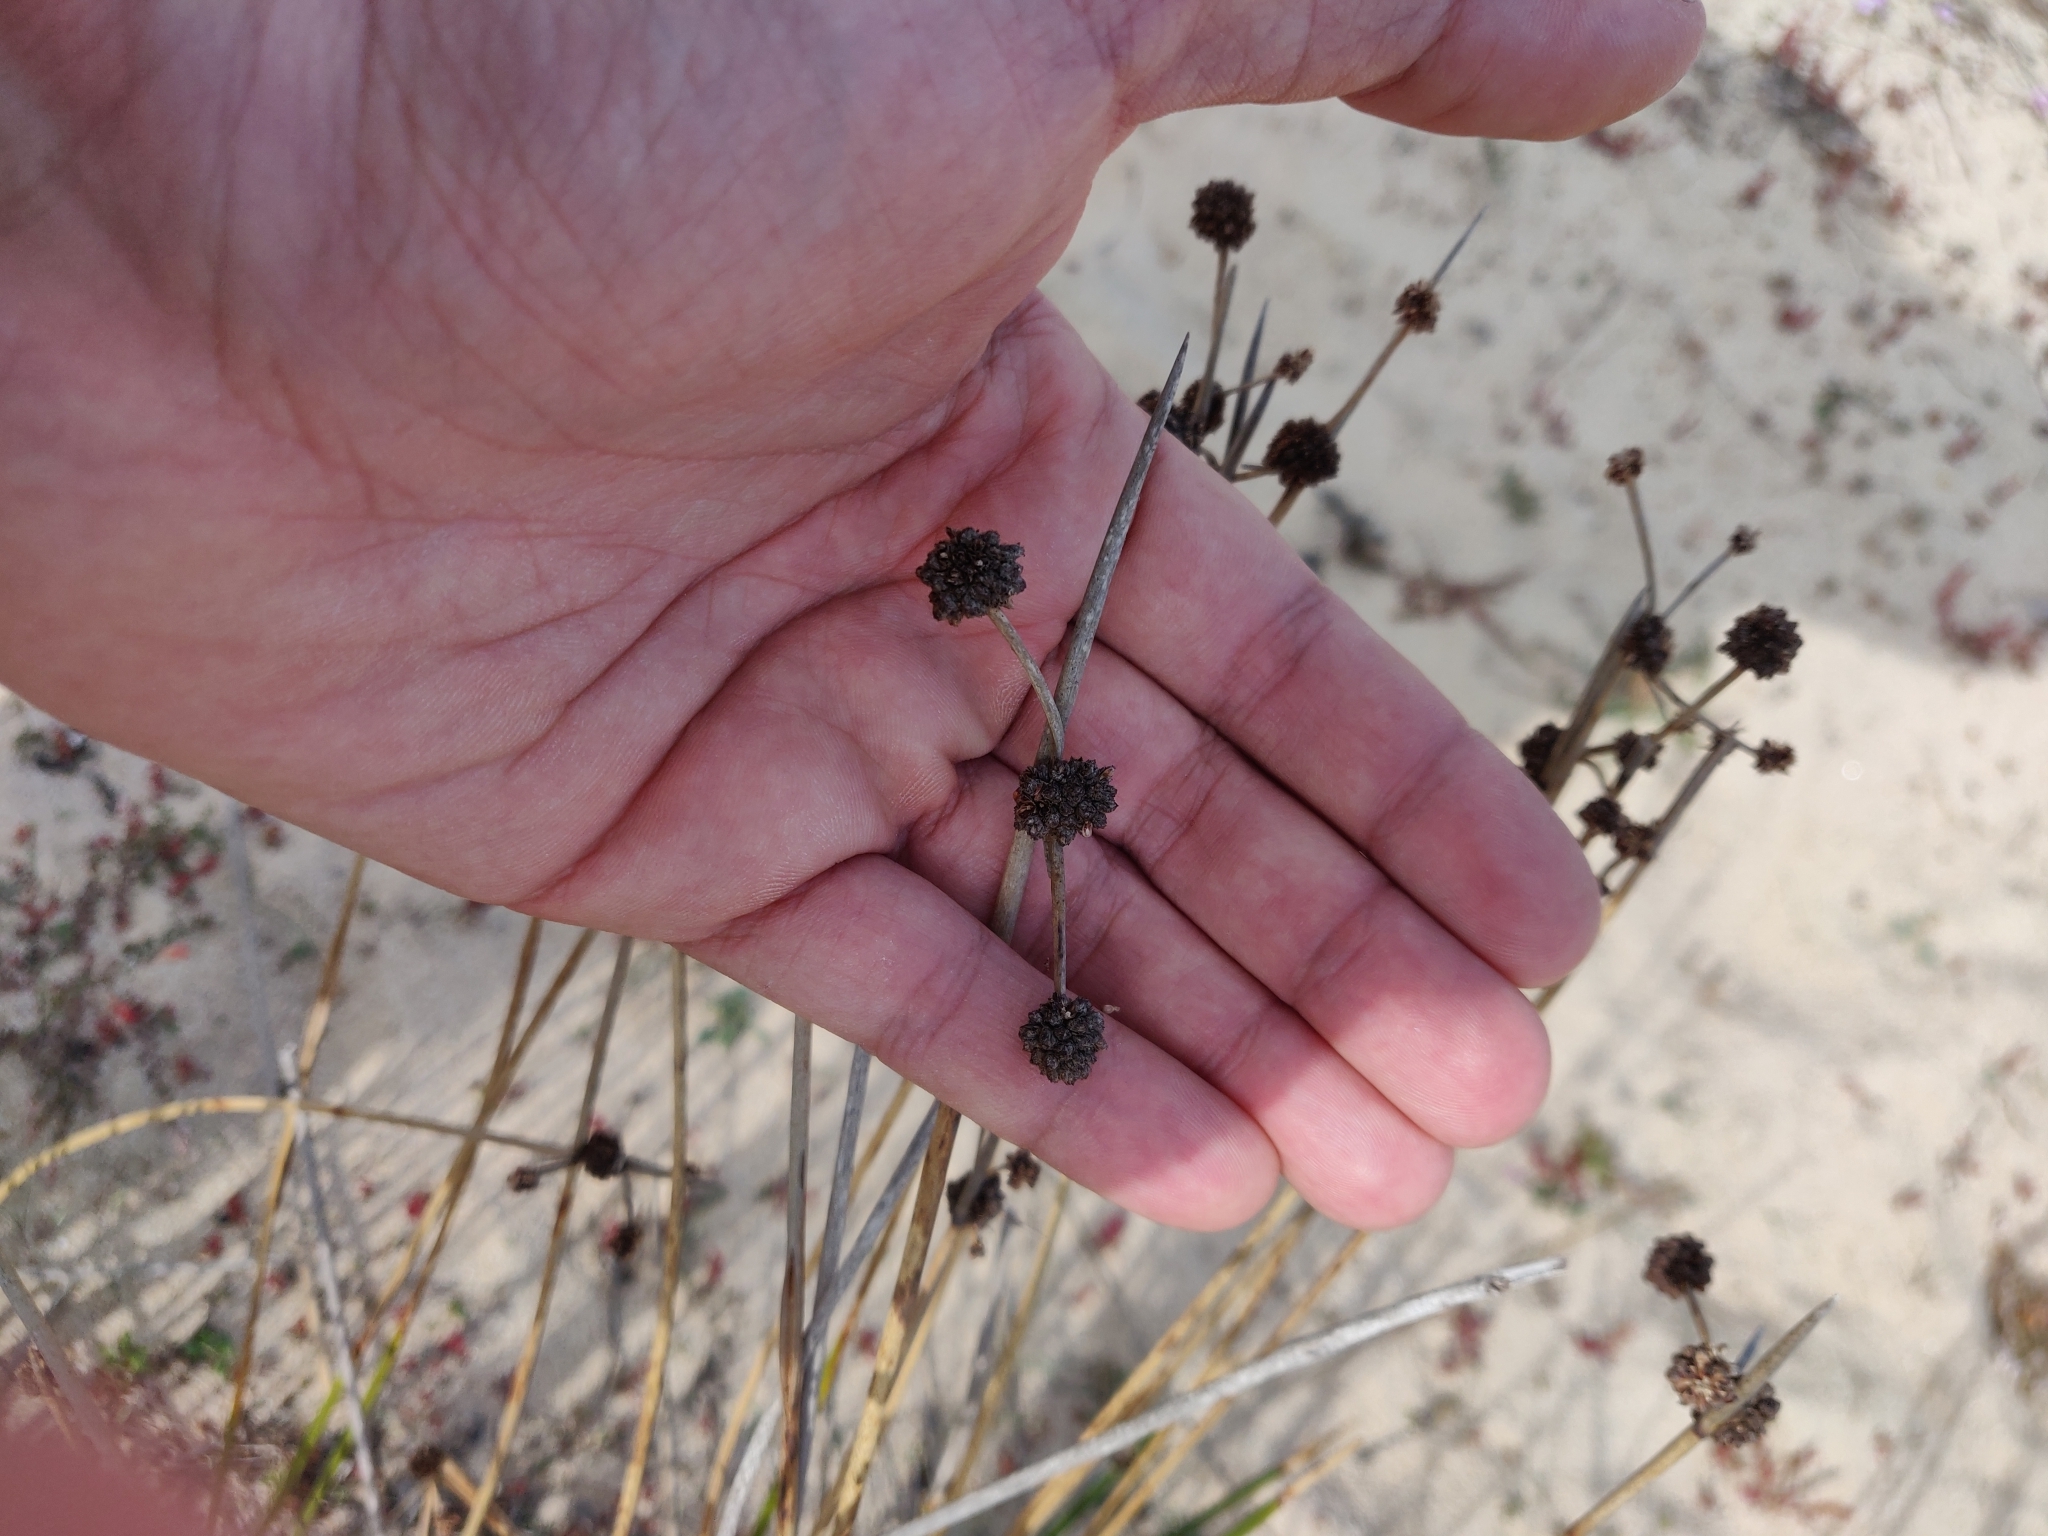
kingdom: Plantae
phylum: Tracheophyta
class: Liliopsida
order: Poales
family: Cyperaceae
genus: Scirpoides
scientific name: Scirpoides holoschoenus
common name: Round-headed club-rush
